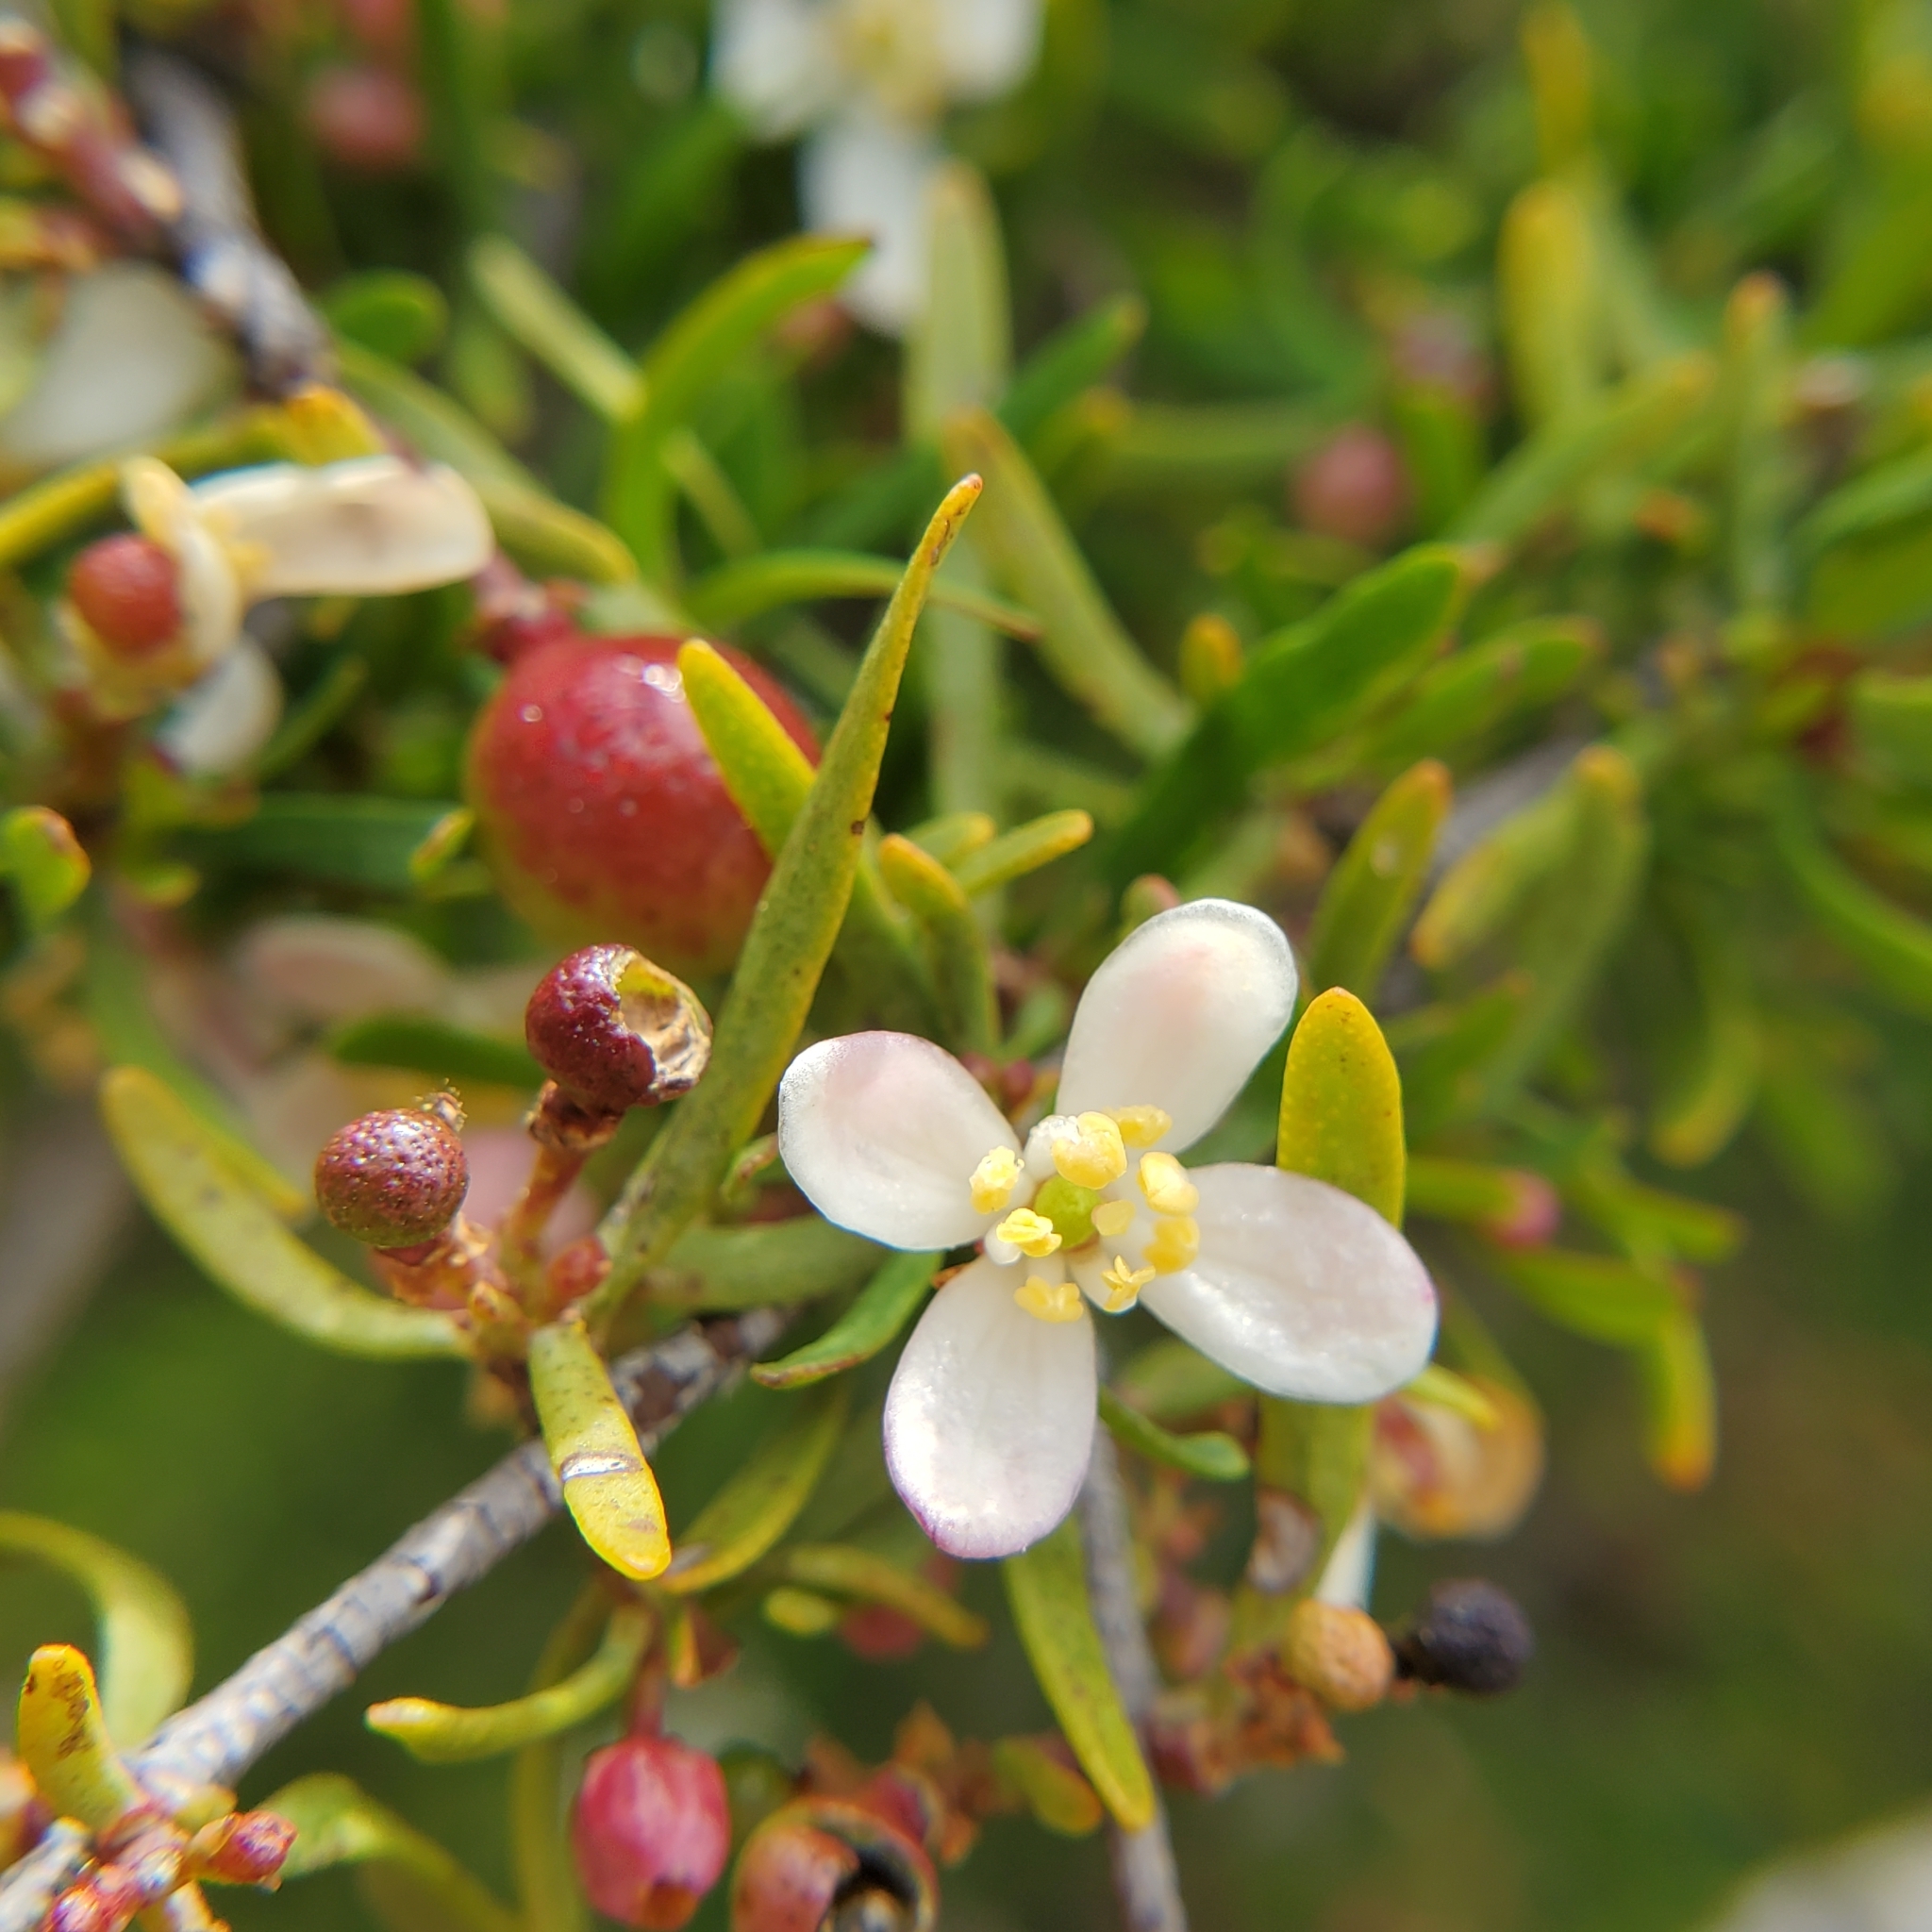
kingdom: Plantae
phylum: Tracheophyta
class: Magnoliopsida
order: Sapindales
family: Rutaceae
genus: Cneoridium
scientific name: Cneoridium dumosum
